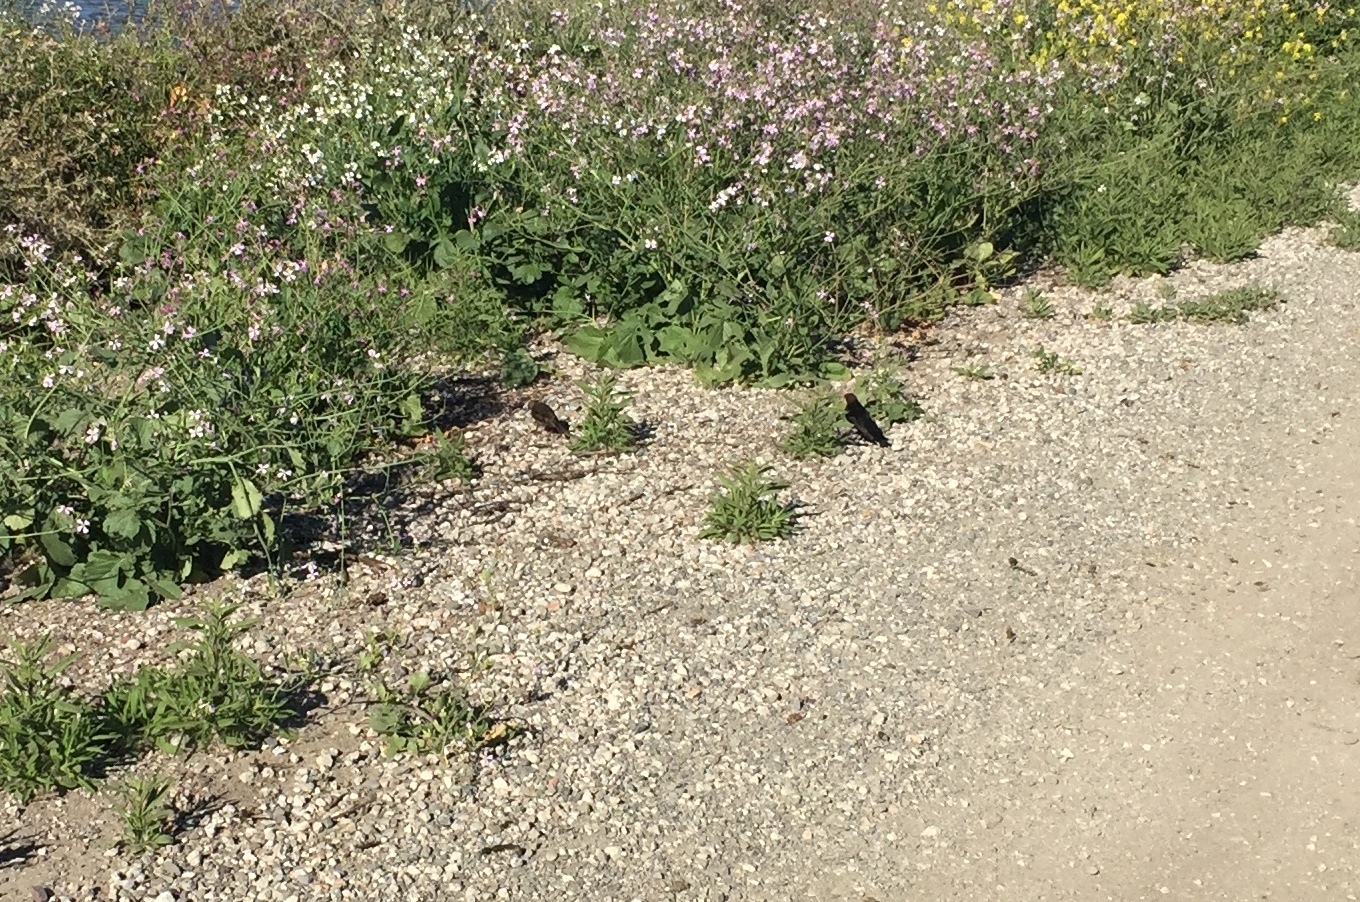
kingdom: Animalia
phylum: Chordata
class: Aves
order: Passeriformes
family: Icteridae
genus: Molothrus
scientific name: Molothrus ater
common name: Brown-headed cowbird
